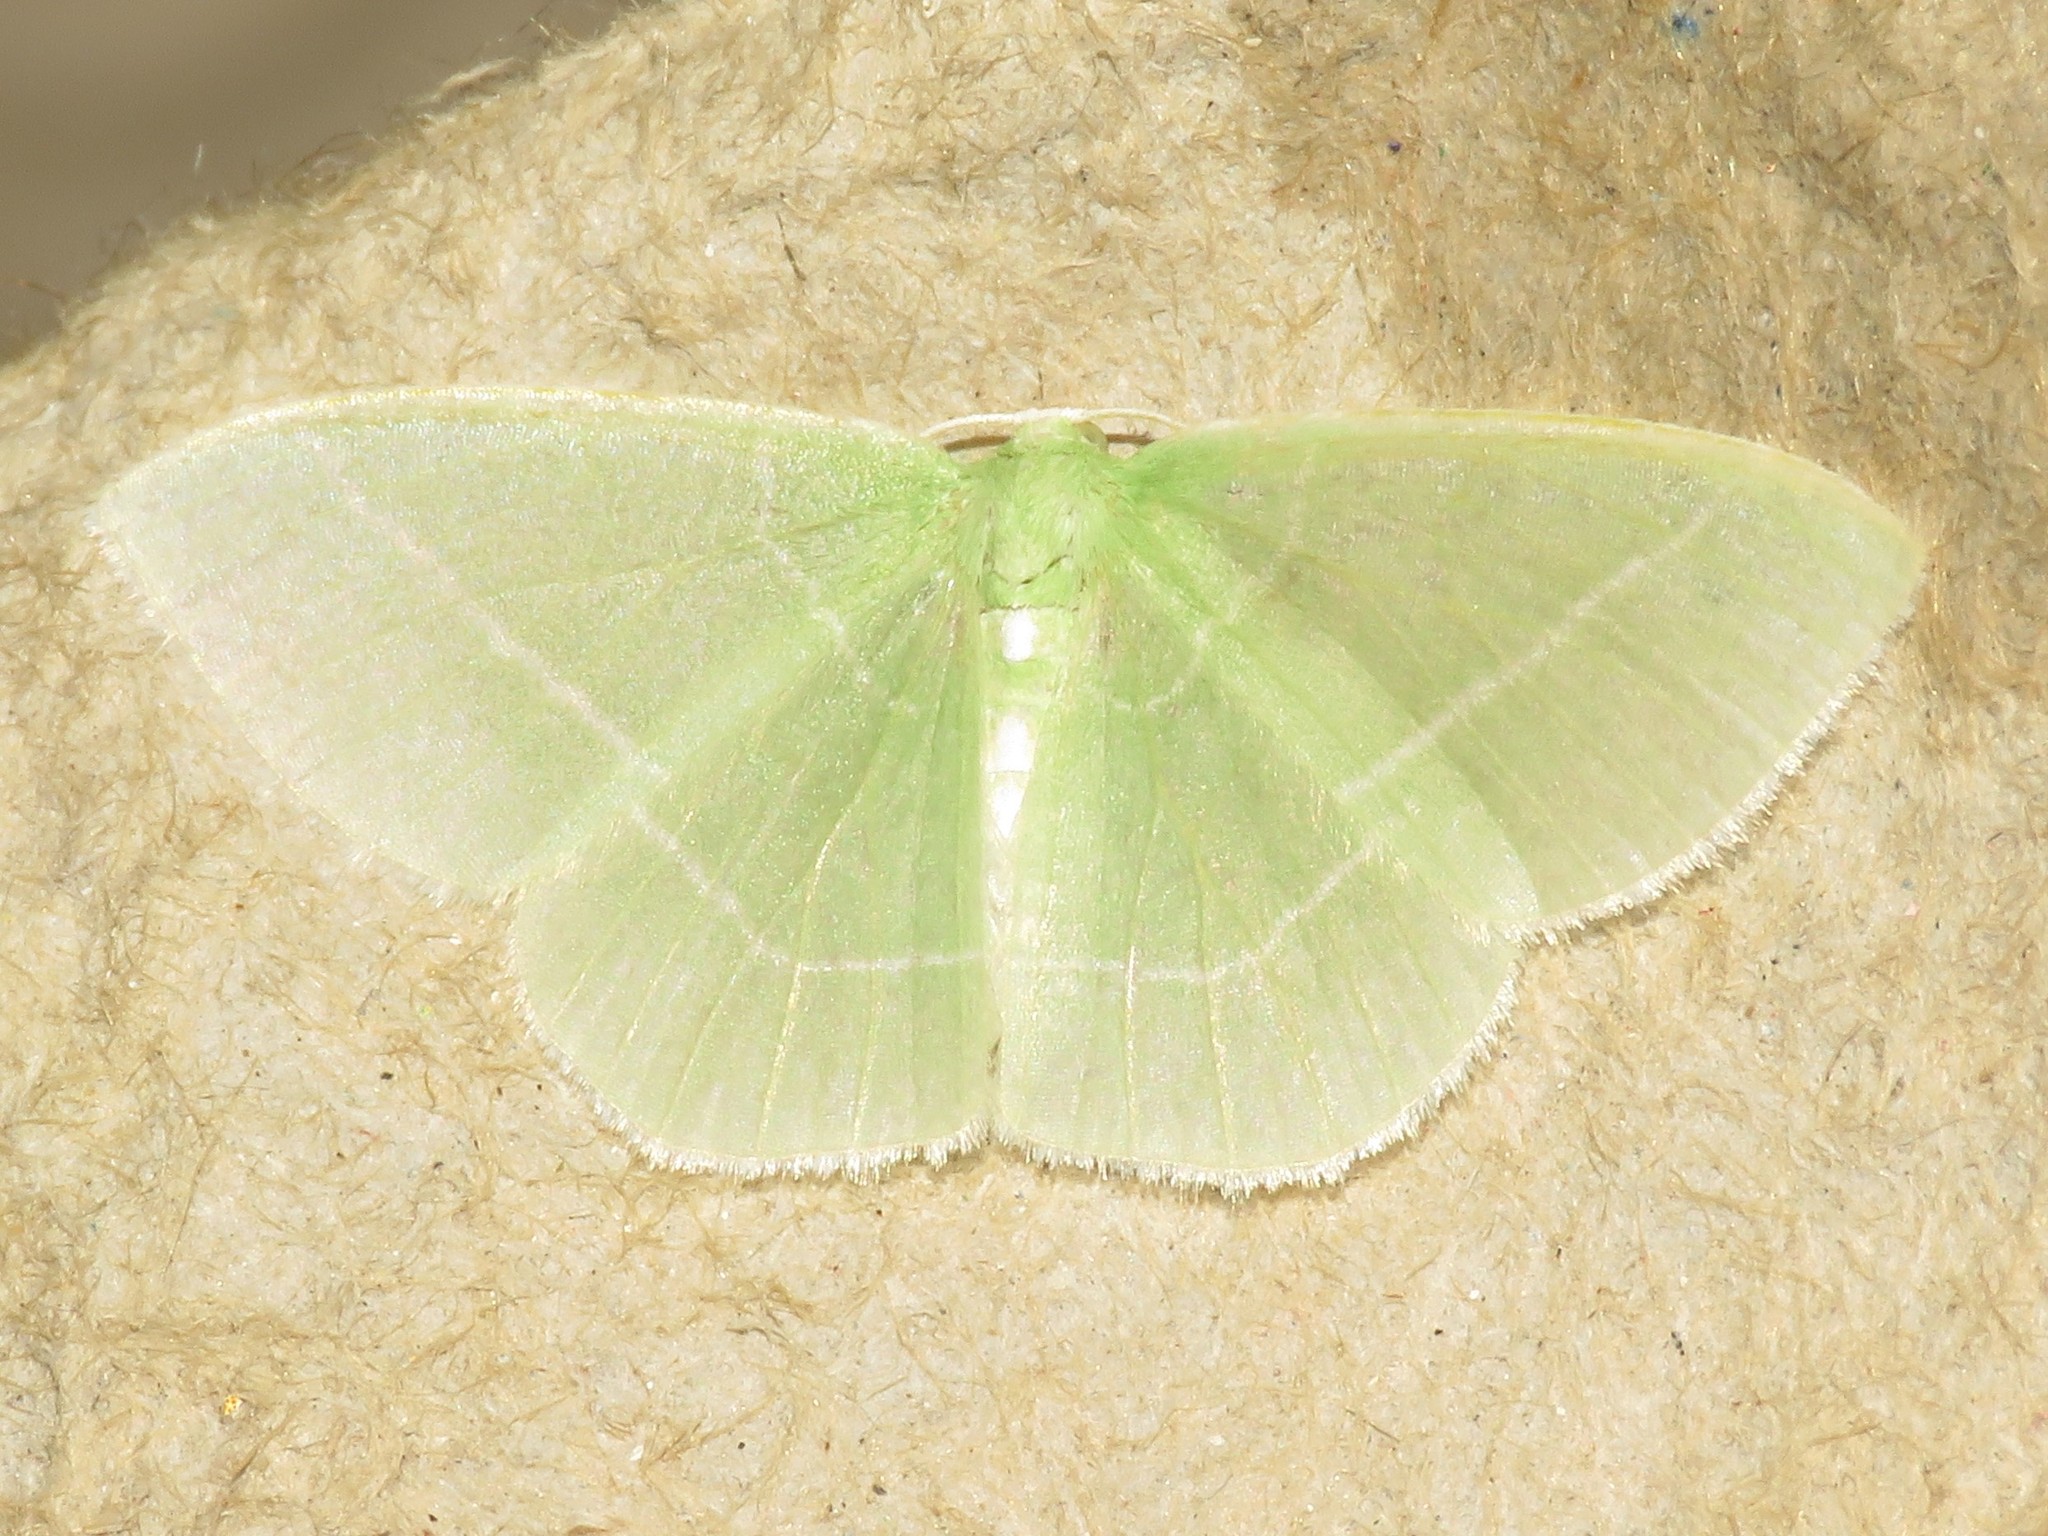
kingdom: Animalia
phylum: Arthropoda
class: Insecta
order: Lepidoptera
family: Geometridae
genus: Nemoria
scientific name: Nemoria mimosaria
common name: White-fringed emerald
